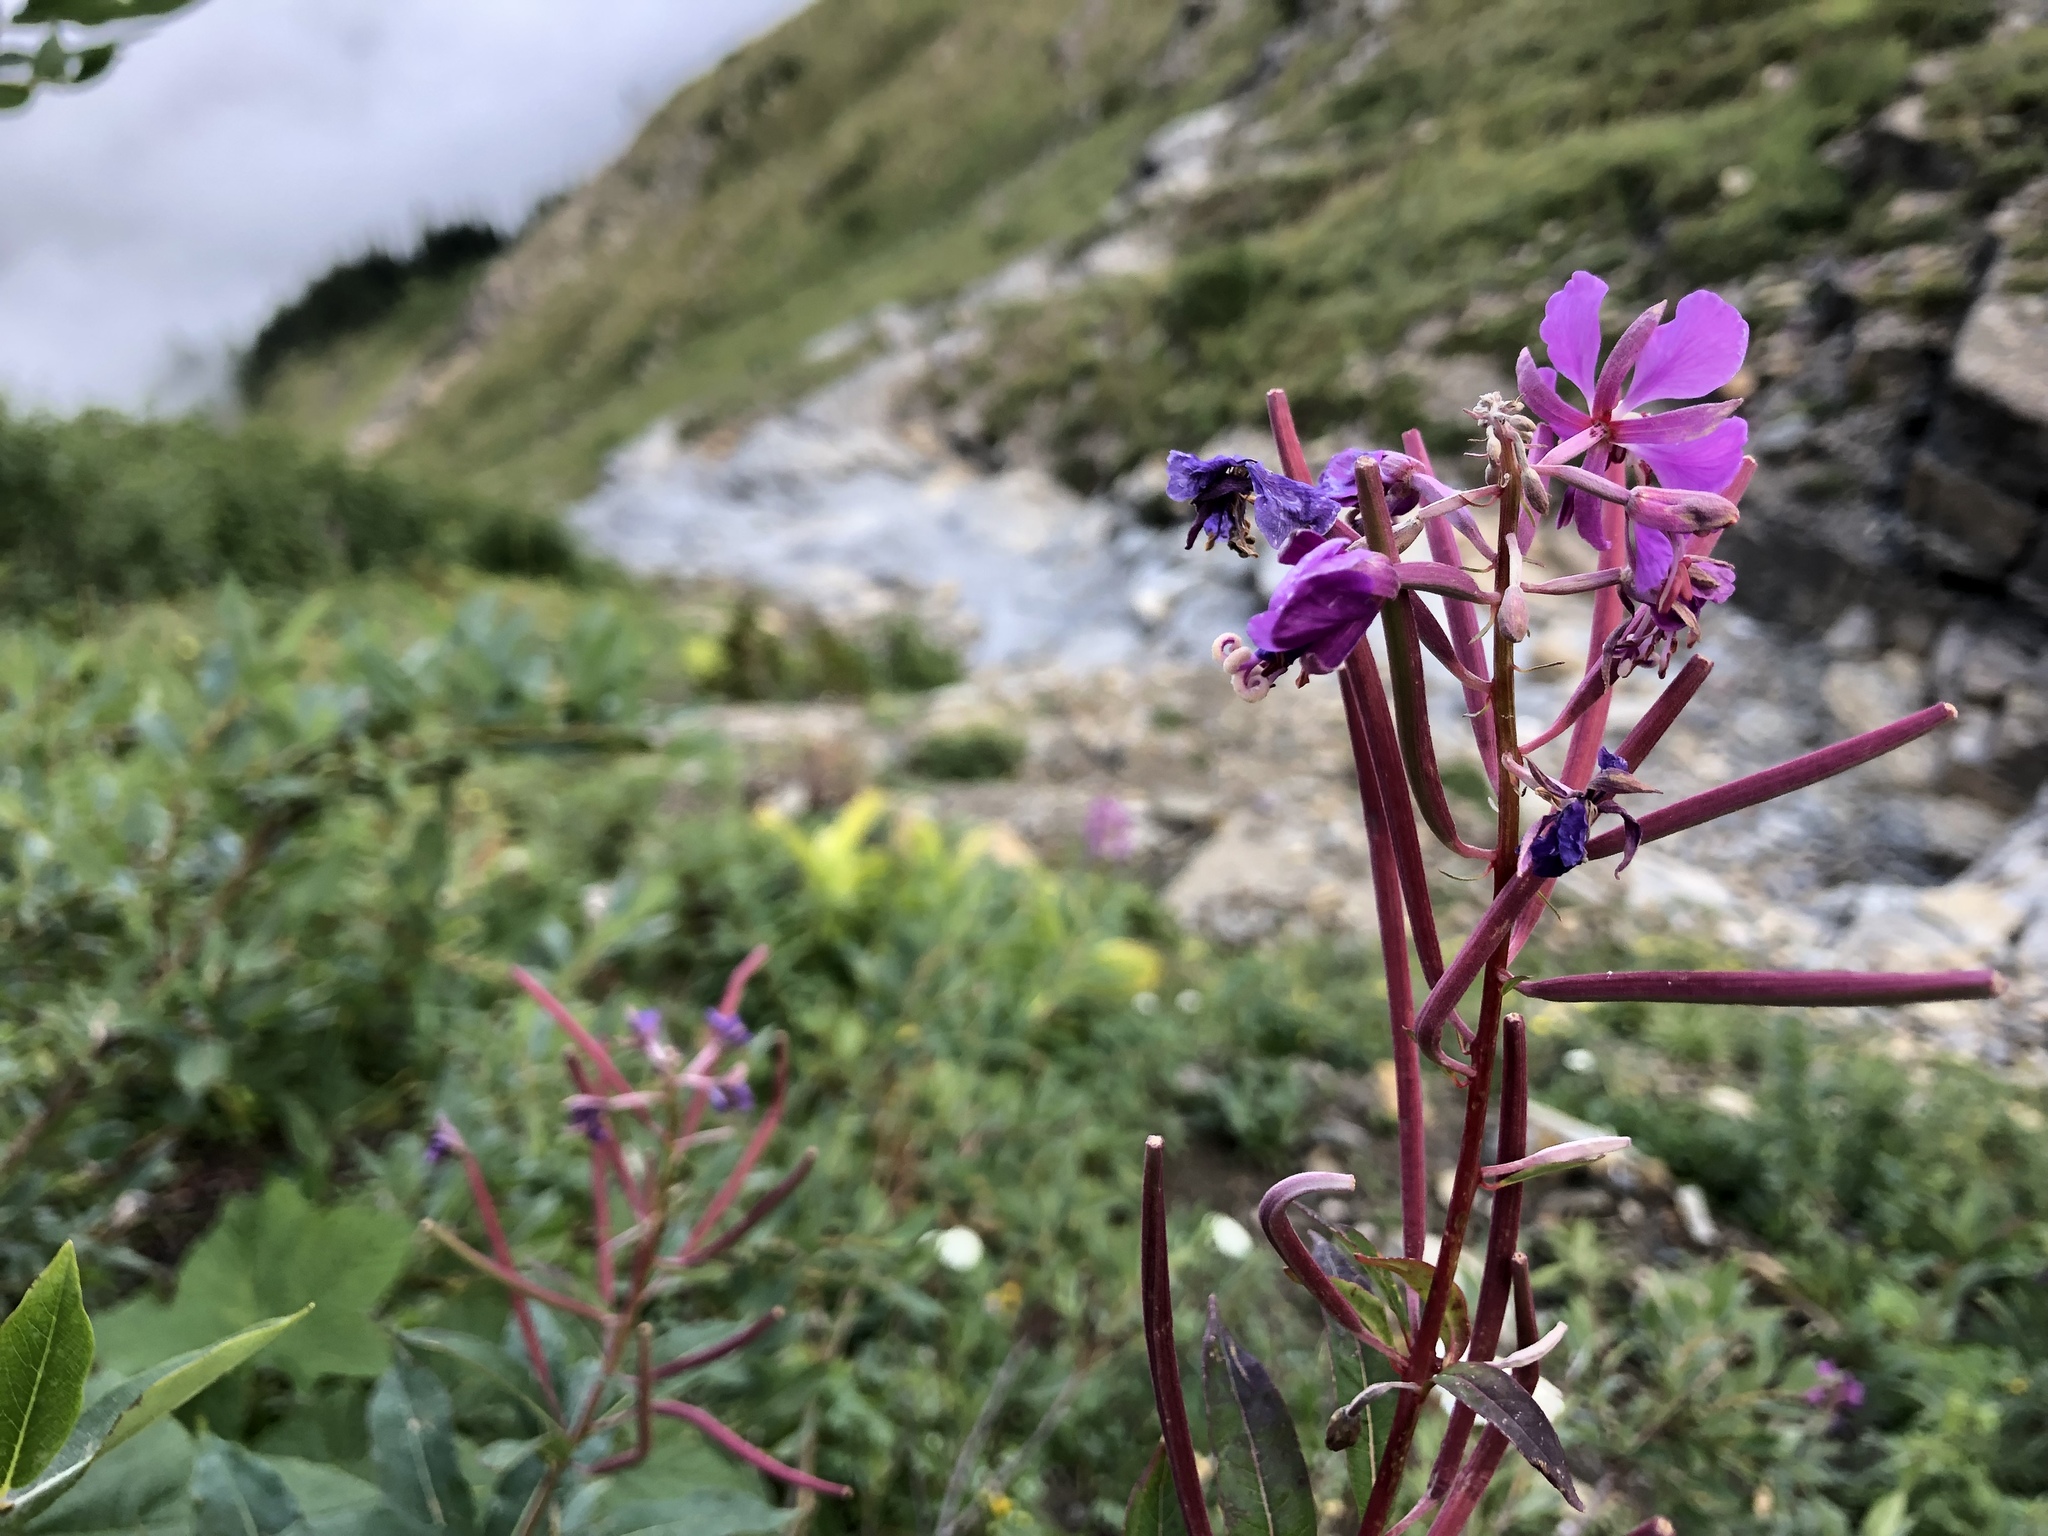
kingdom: Plantae
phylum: Tracheophyta
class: Magnoliopsida
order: Myrtales
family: Onagraceae
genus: Chamaenerion
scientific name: Chamaenerion angustifolium
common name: Fireweed
